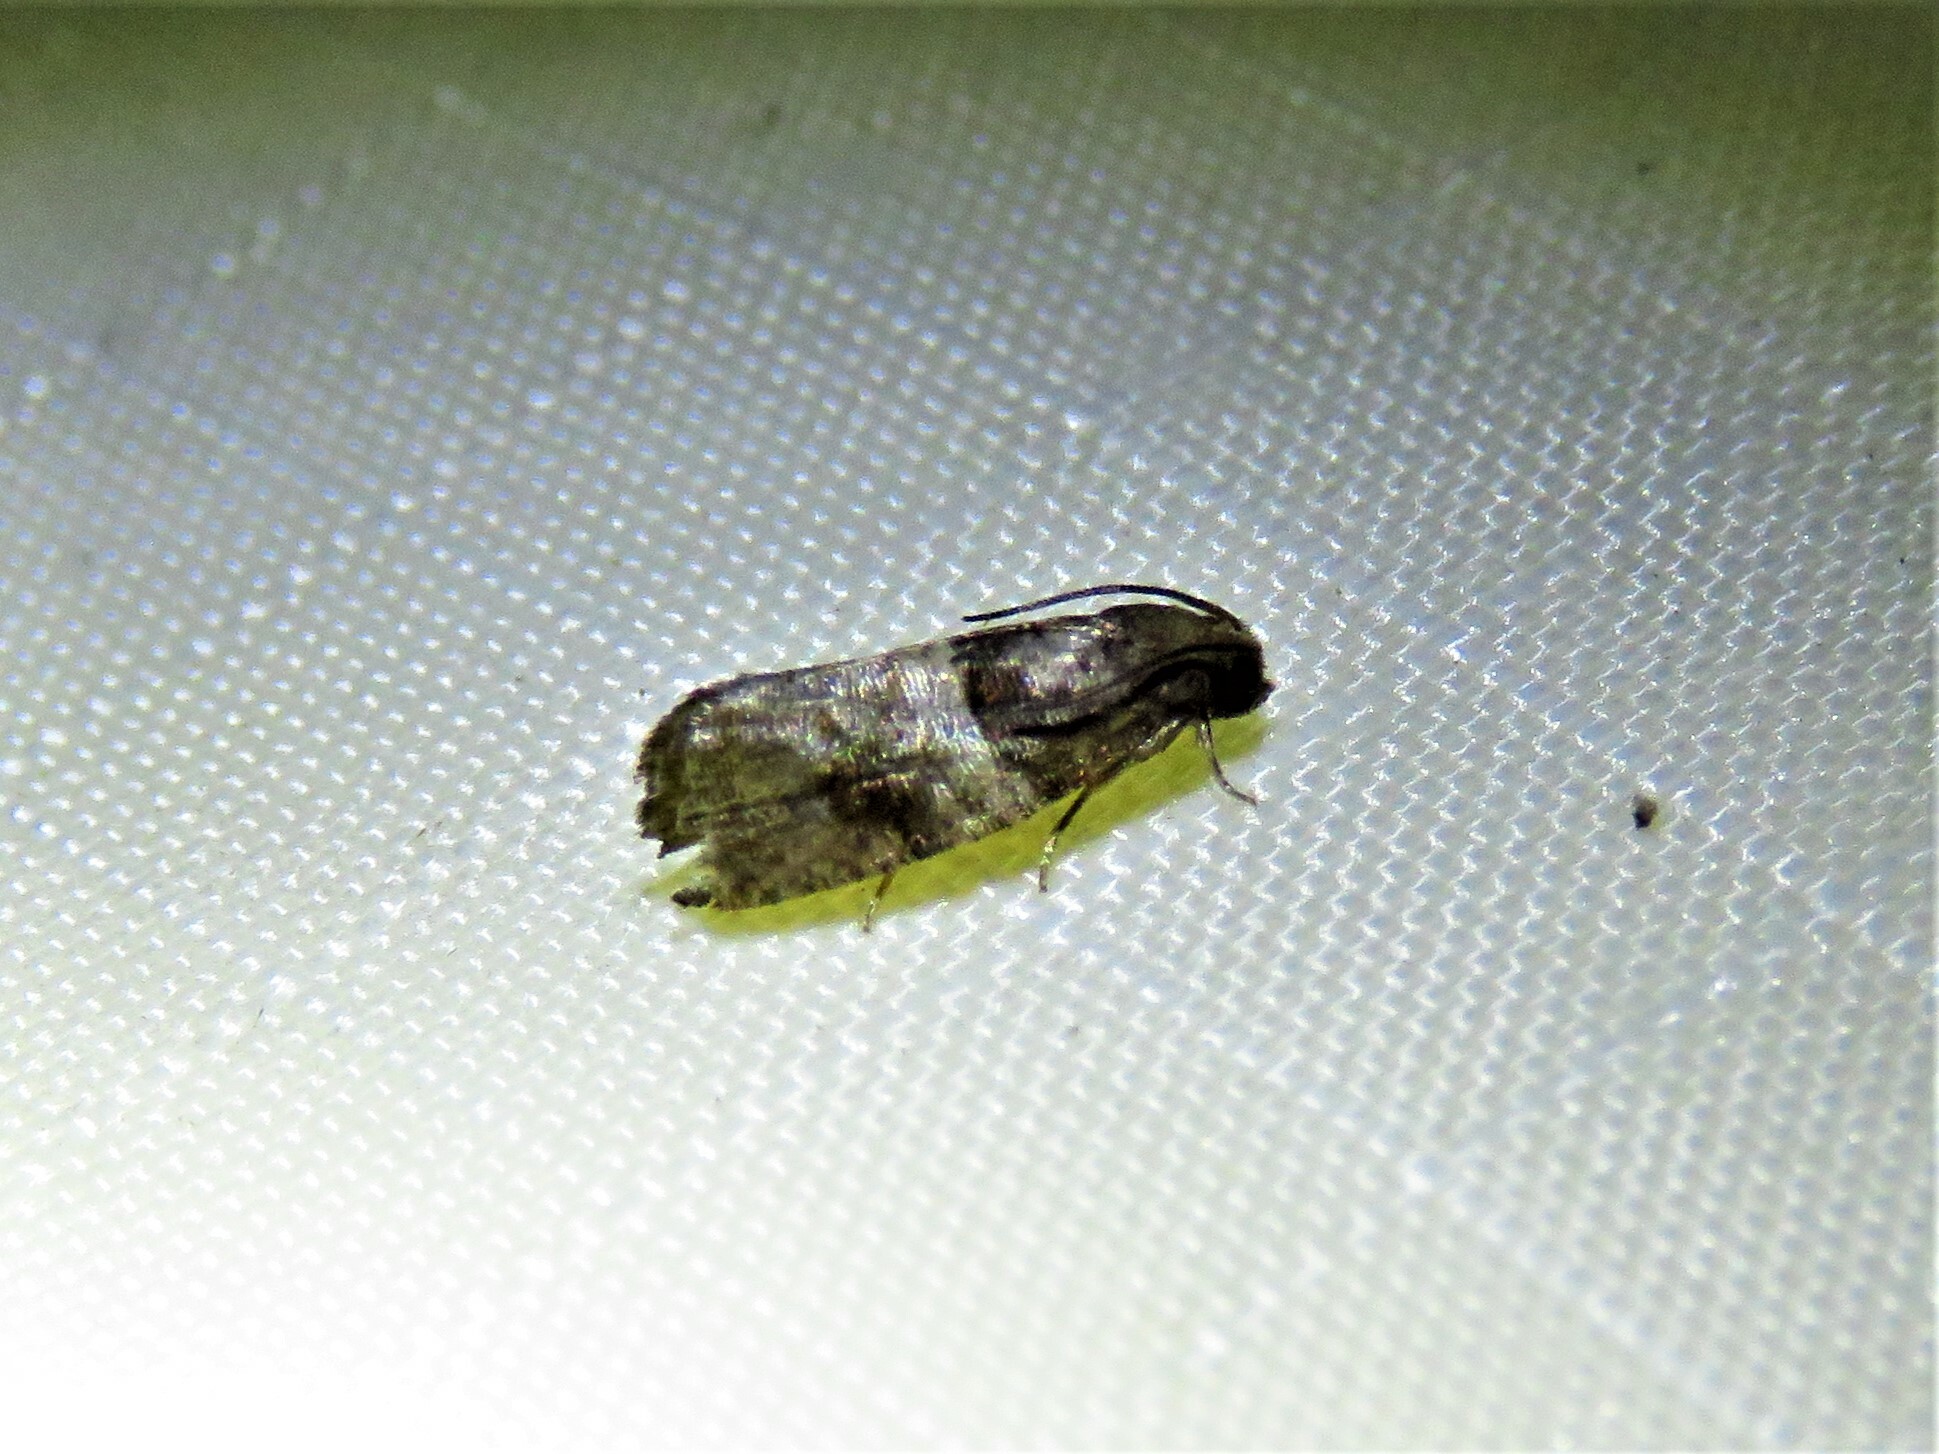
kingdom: Animalia
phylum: Arthropoda
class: Insecta
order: Lepidoptera
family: Tortricidae
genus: Larisa
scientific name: Larisa subsolana
